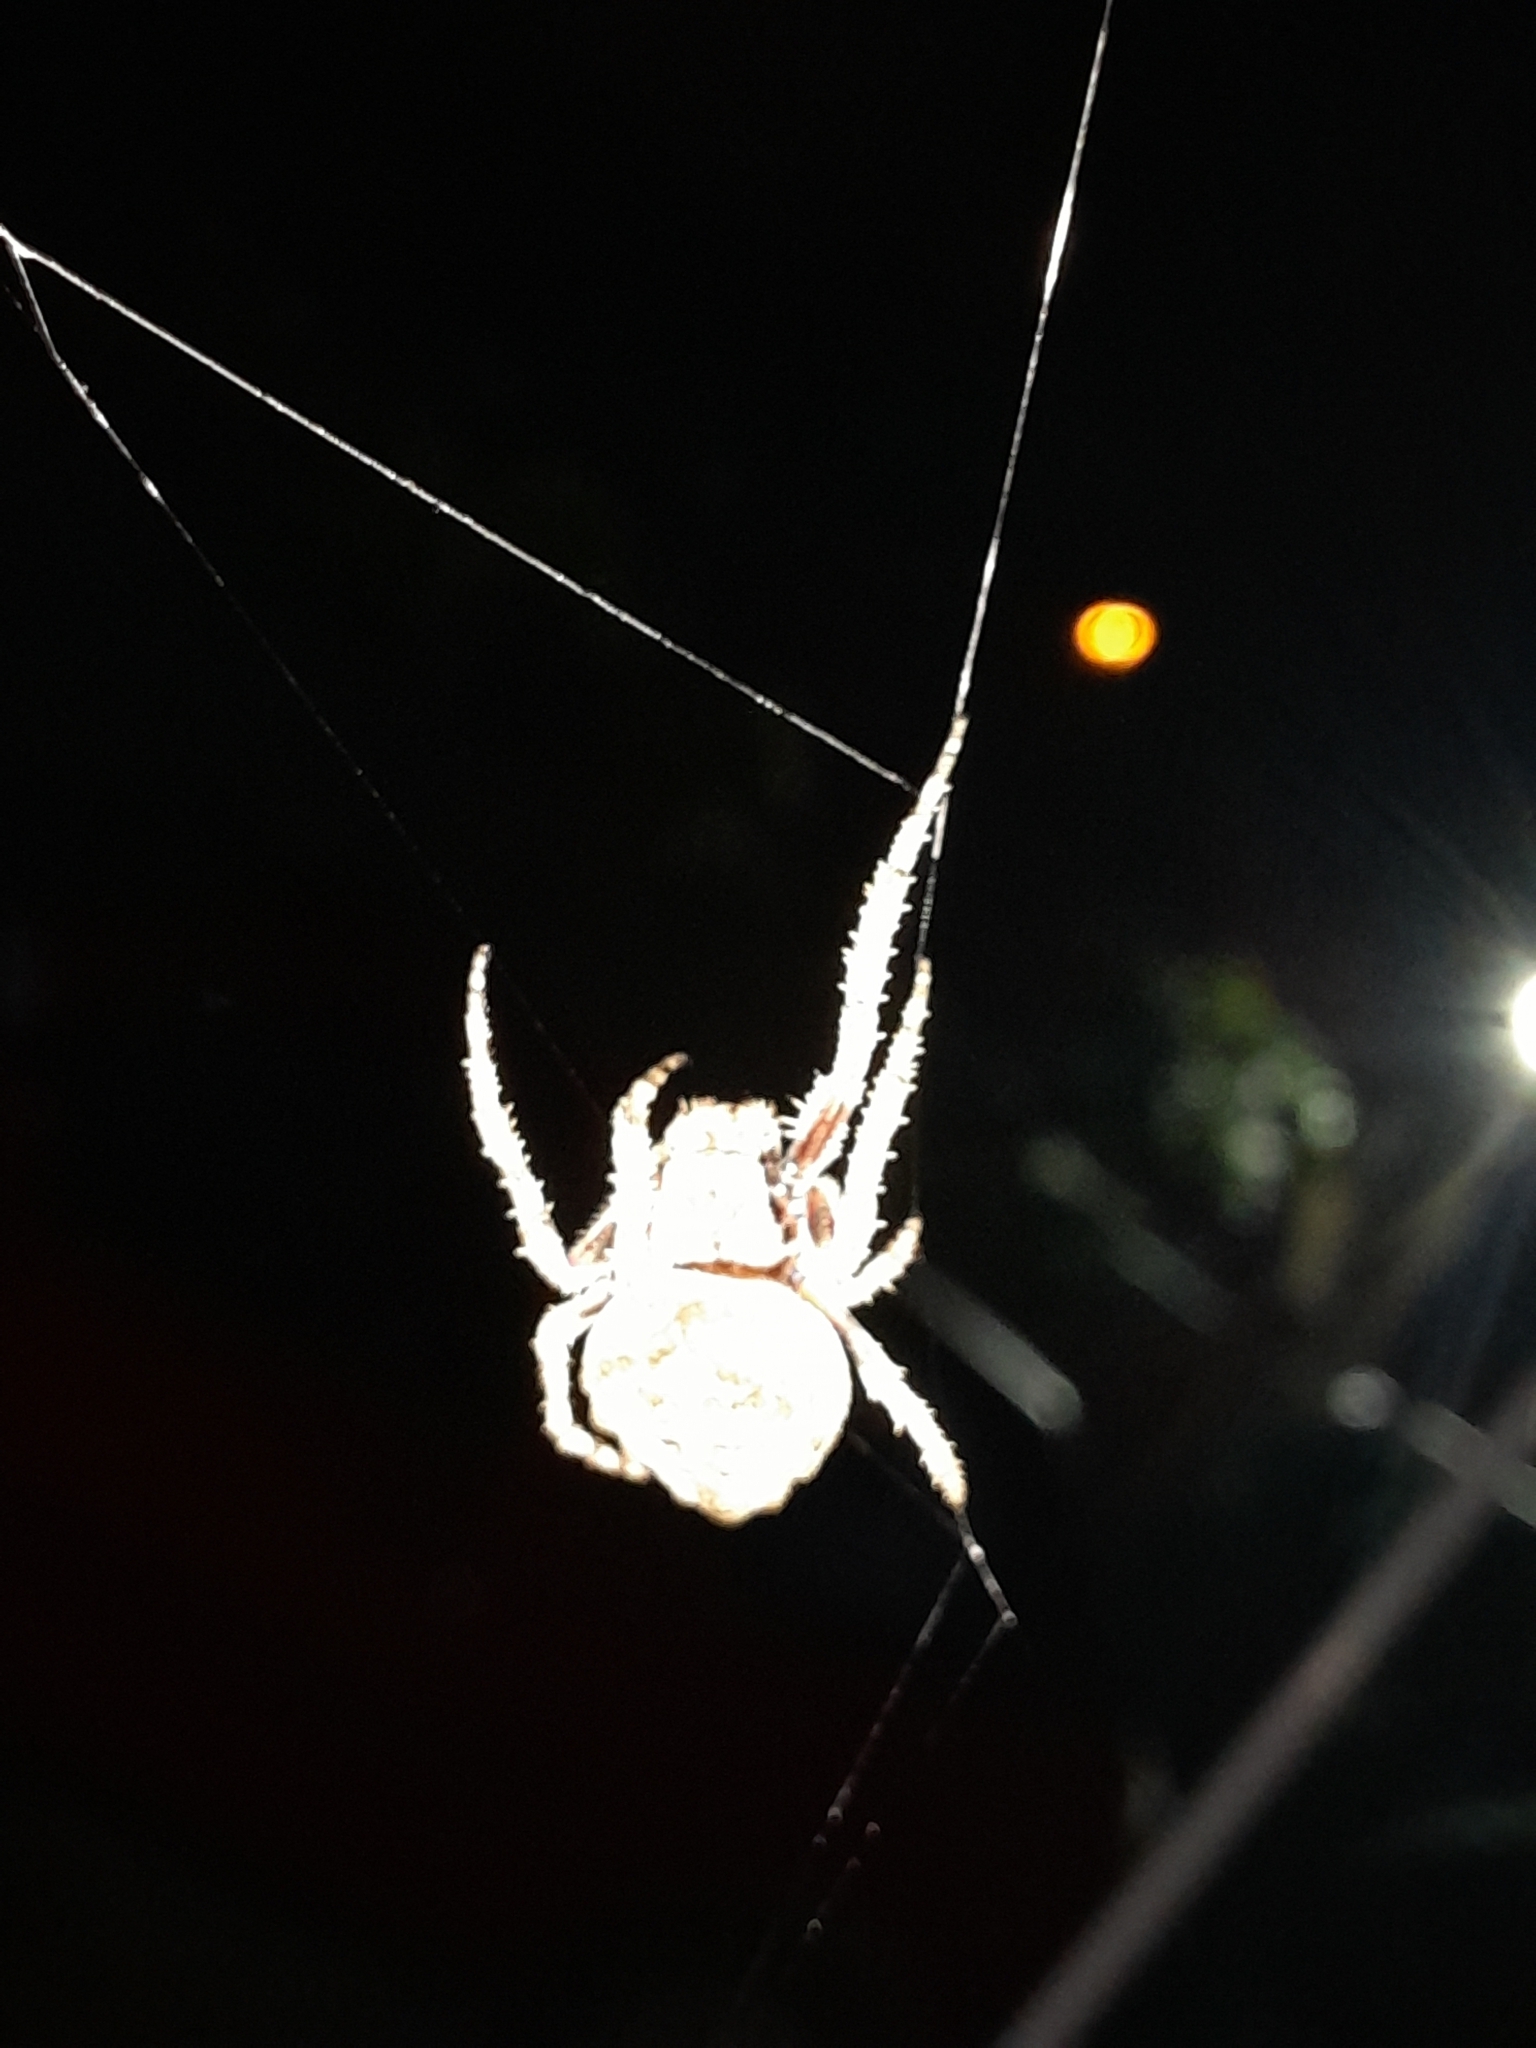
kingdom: Animalia
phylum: Arthropoda
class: Arachnida
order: Araneae
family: Araneidae
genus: Parawixia
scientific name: Parawixia audax
